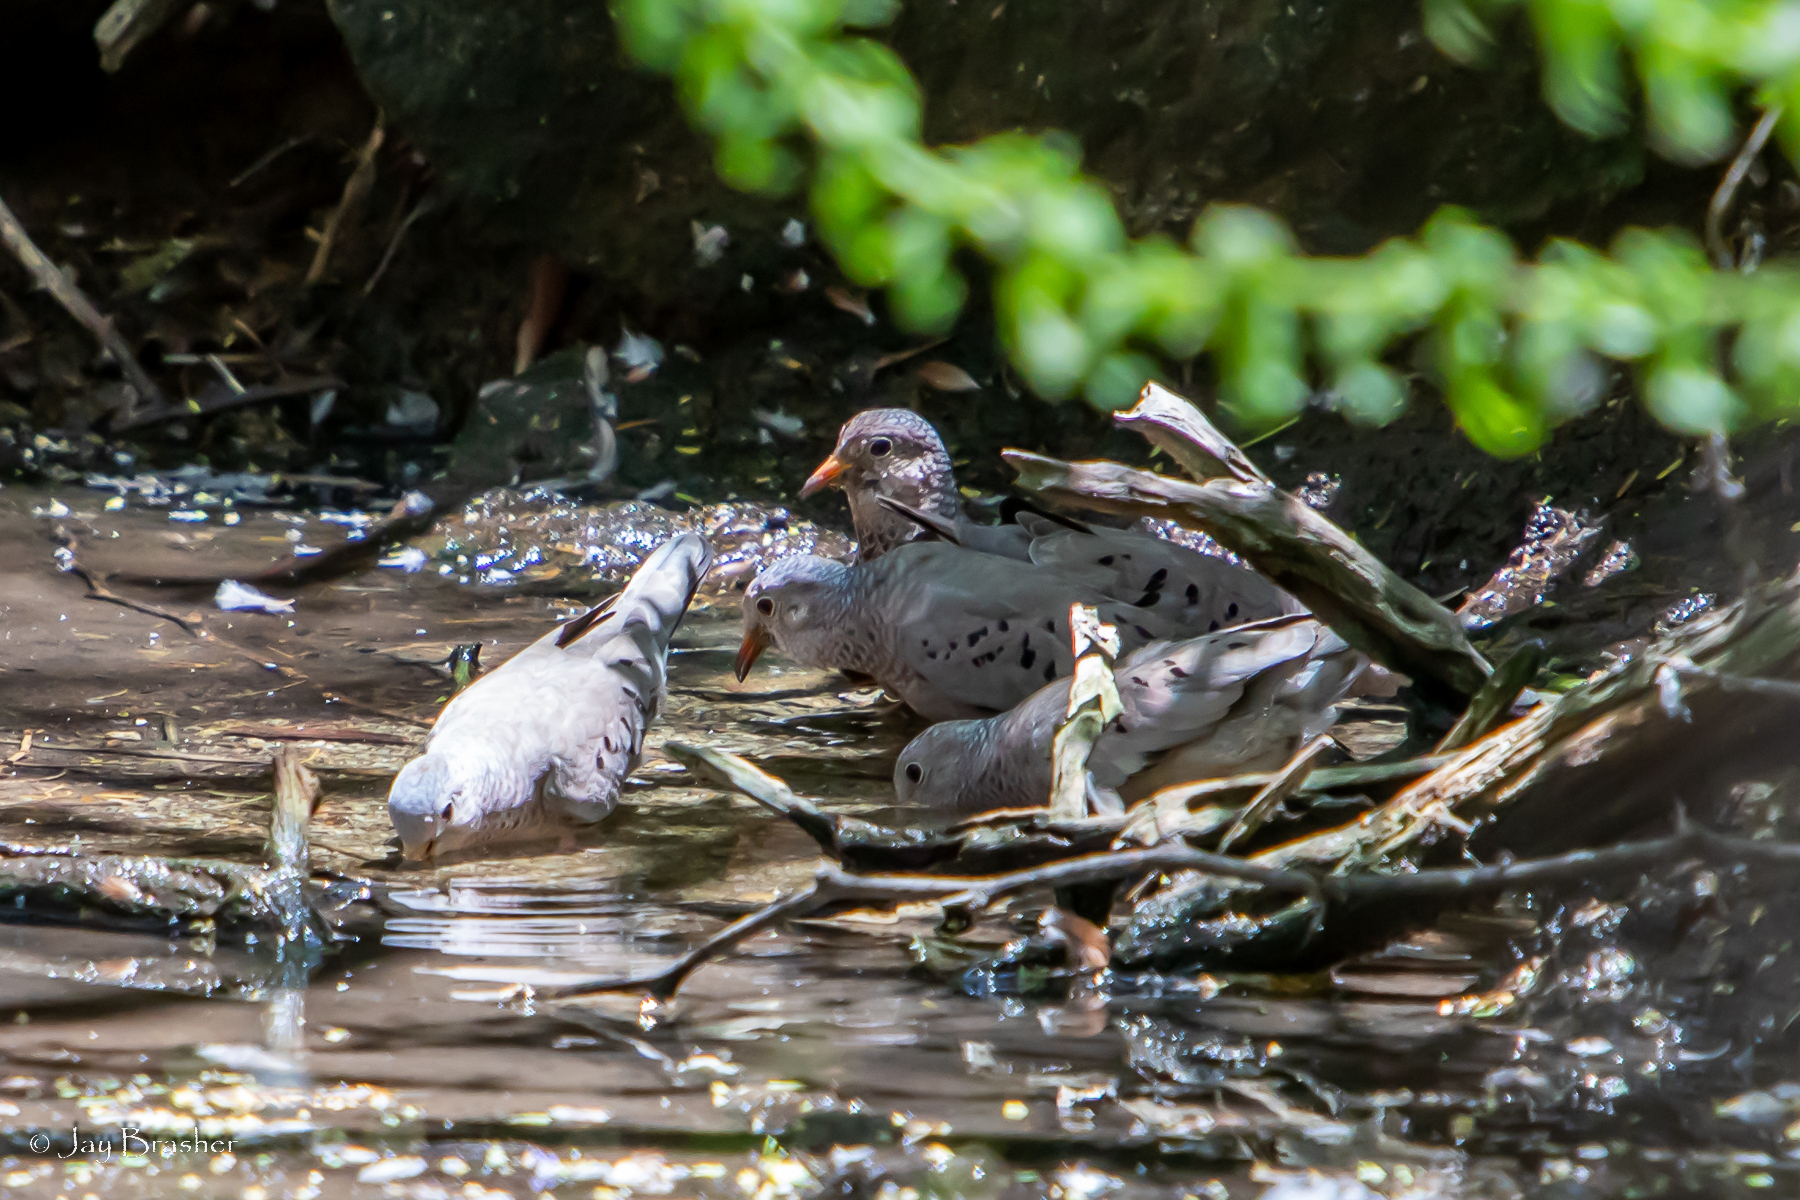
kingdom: Animalia
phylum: Chordata
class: Aves
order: Columbiformes
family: Columbidae
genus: Columbina
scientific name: Columbina passerina
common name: Common ground-dove
